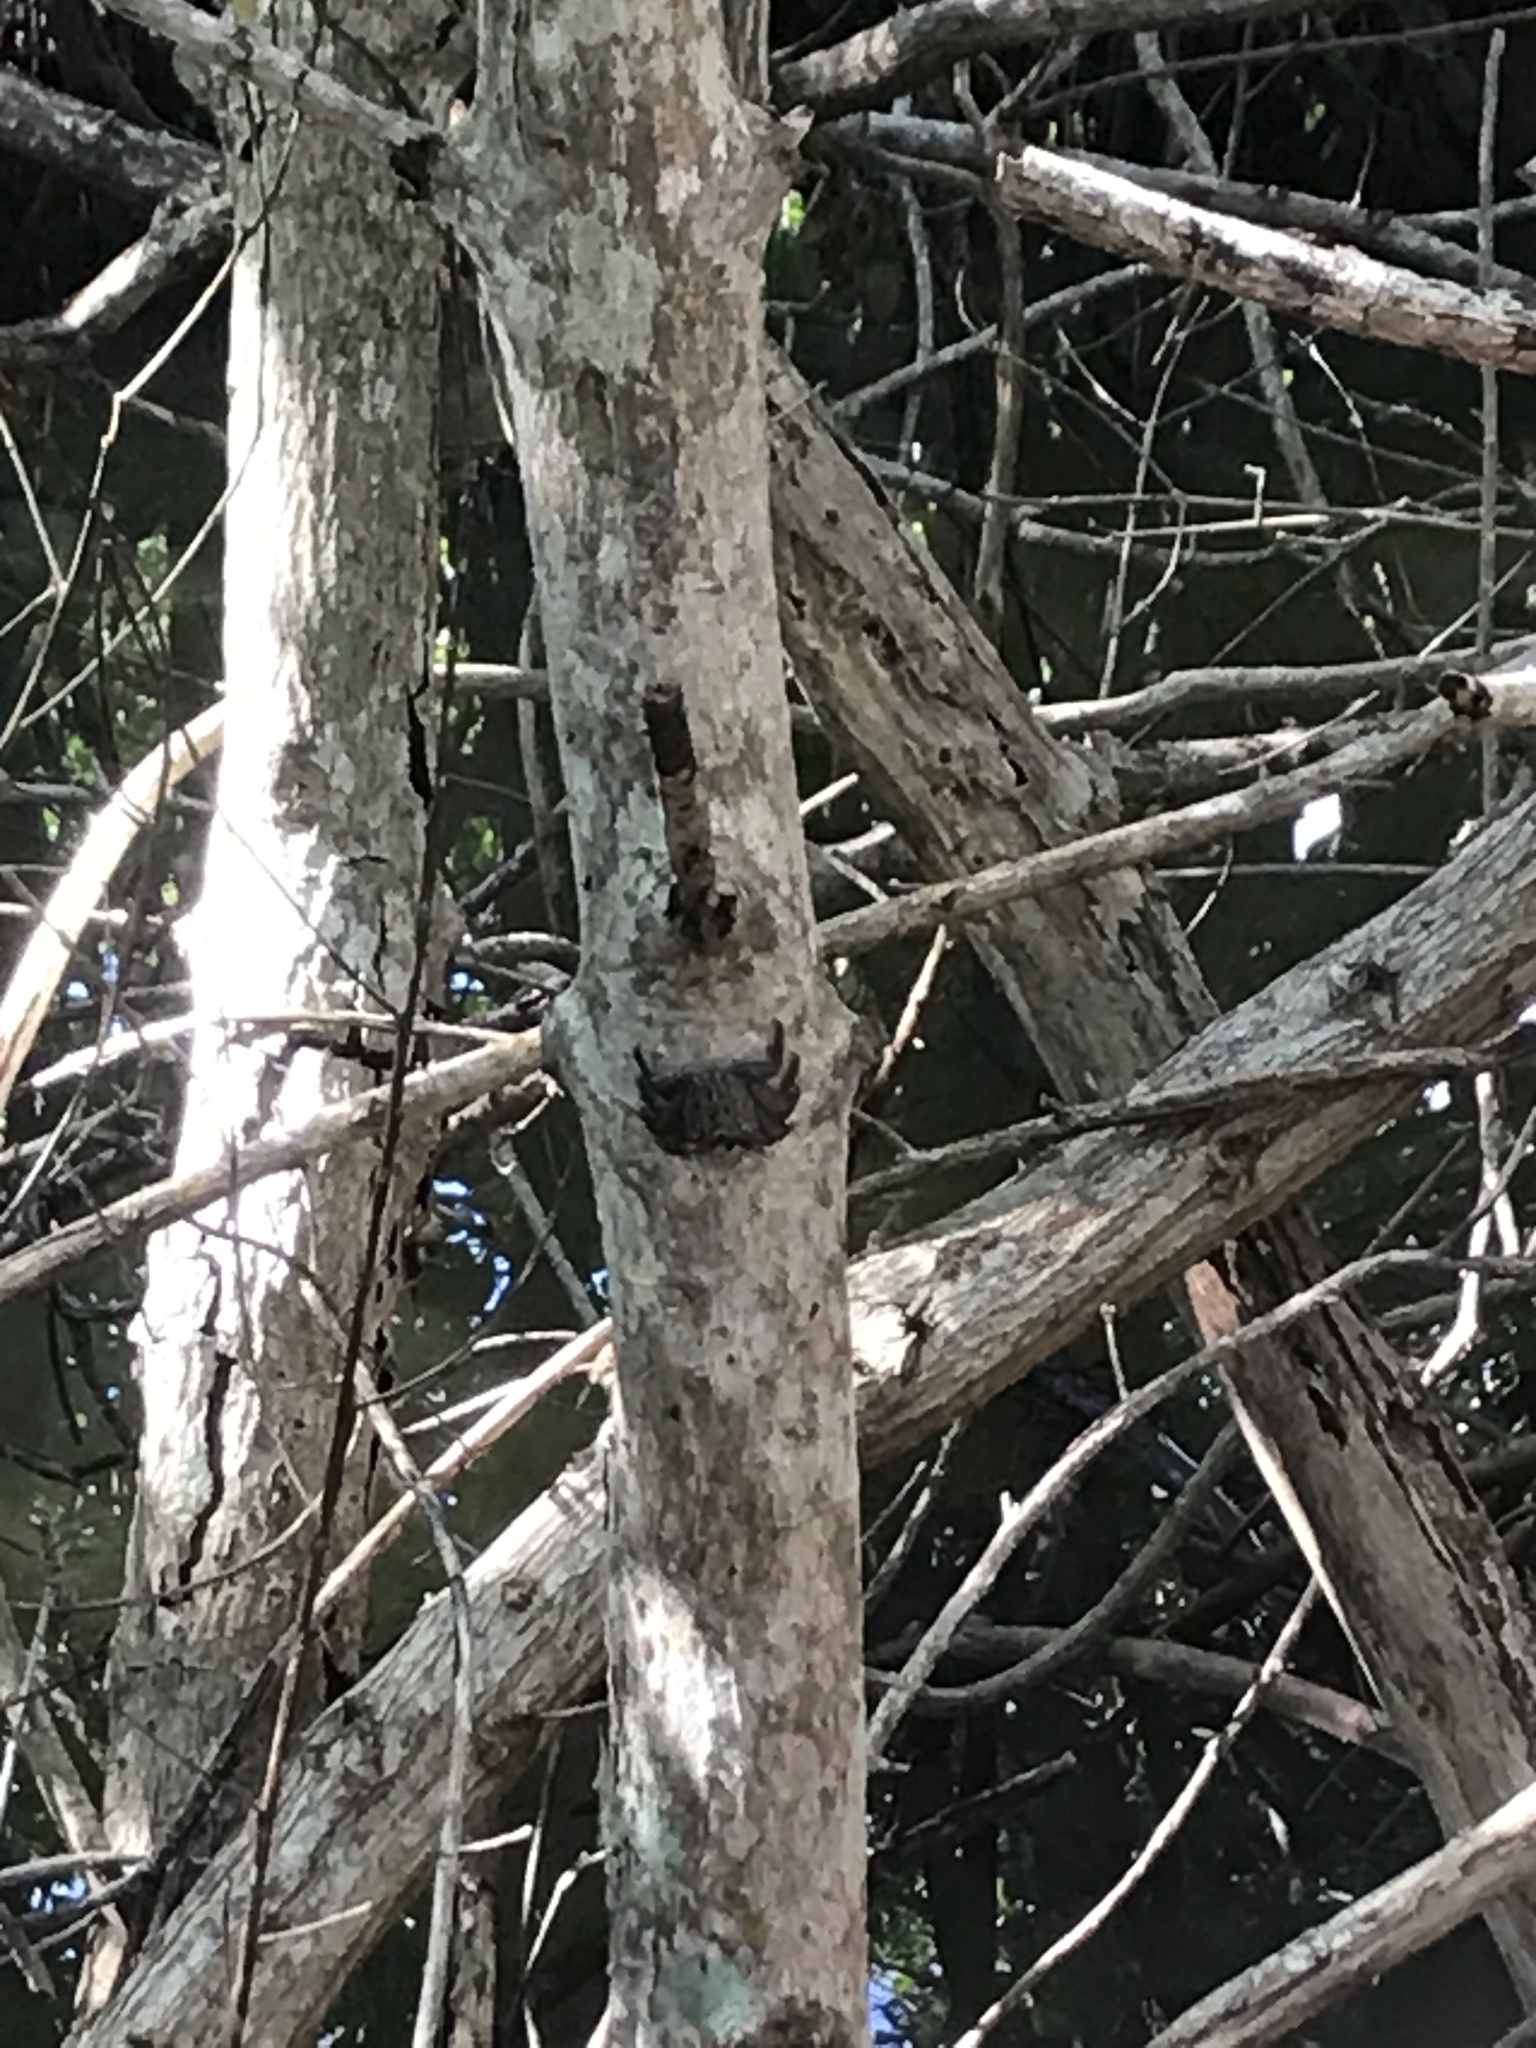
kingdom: Animalia
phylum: Arthropoda
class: Malacostraca
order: Decapoda
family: Sesarmidae
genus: Aratus
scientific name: Aratus pisonii
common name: Mangrove crab
